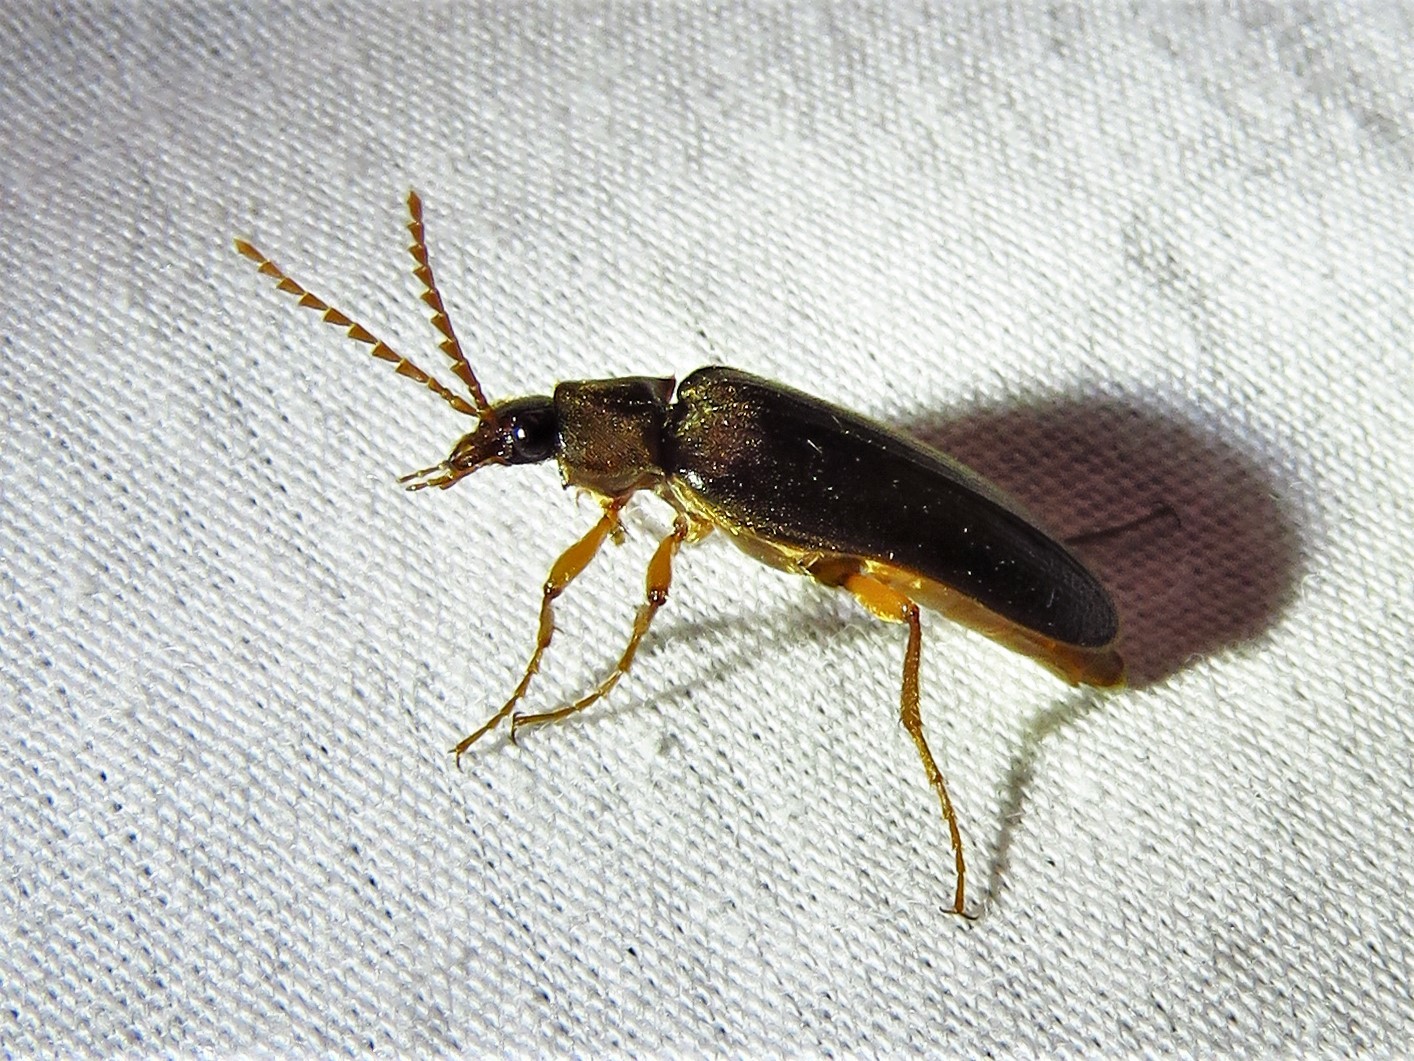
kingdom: Animalia
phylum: Arthropoda
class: Insecta
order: Coleoptera
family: Elateridae
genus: Selonodon
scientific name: Selonodon
